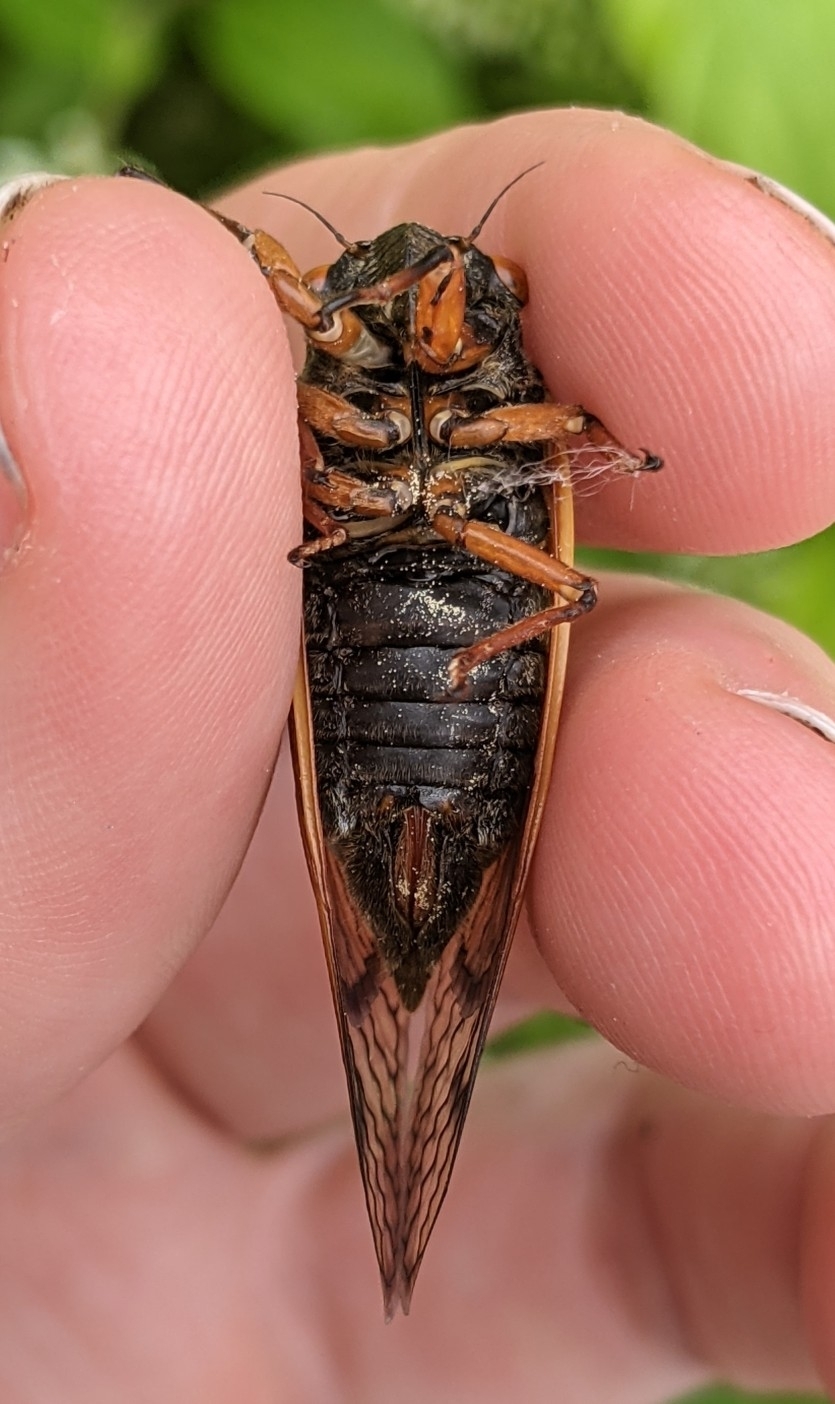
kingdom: Animalia
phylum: Arthropoda
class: Insecta
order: Hemiptera
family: Cicadidae
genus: Magicicada
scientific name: Magicicada cassini
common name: Cassin's 17-year cicada
